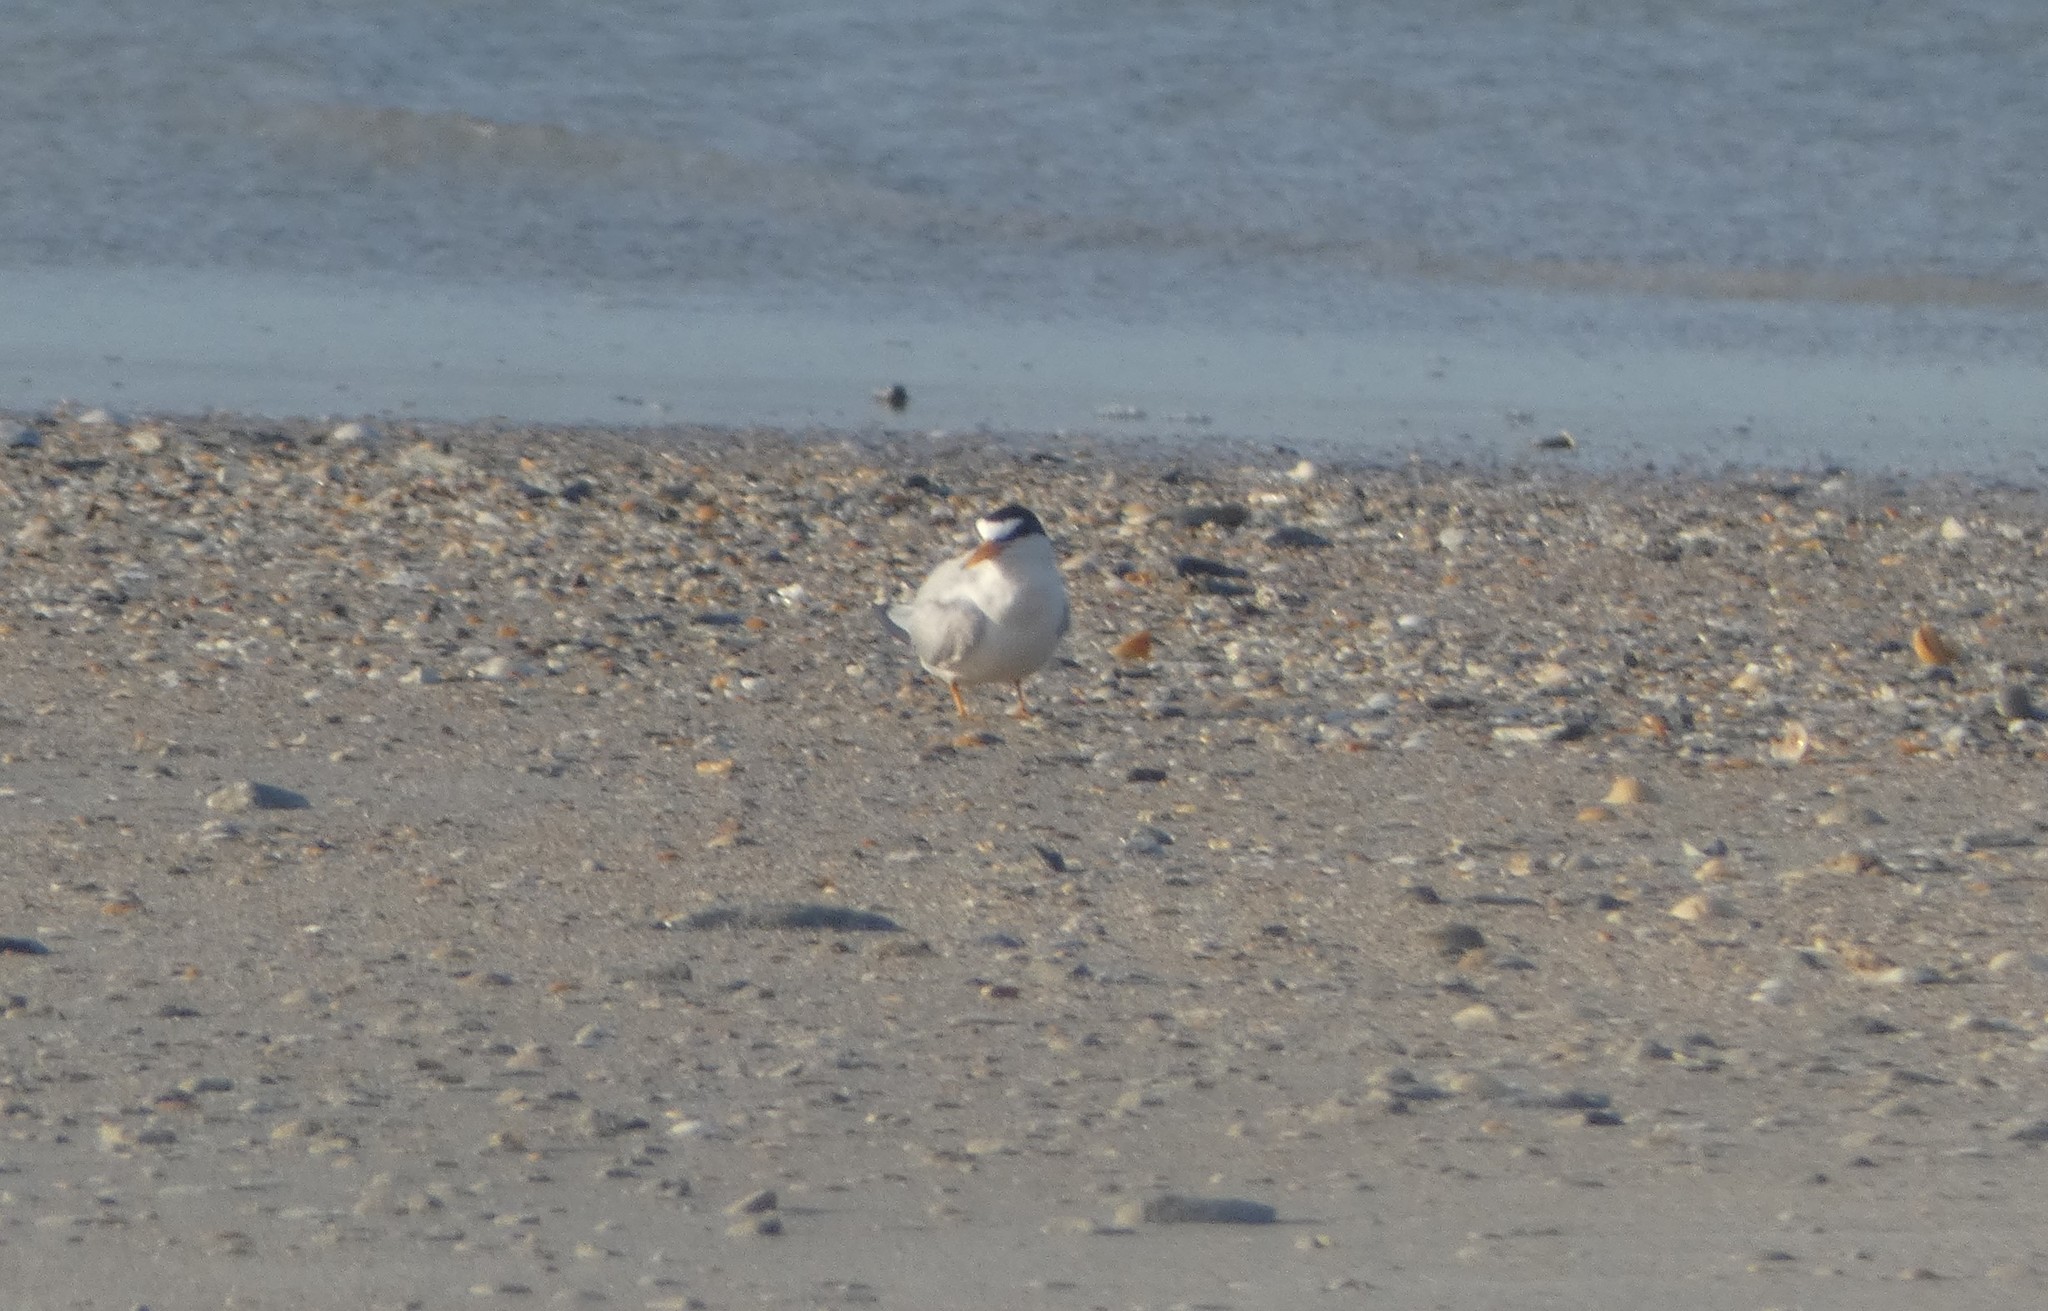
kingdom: Animalia
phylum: Chordata
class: Aves
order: Charadriiformes
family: Laridae
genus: Sternula
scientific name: Sternula antillarum
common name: Least tern
